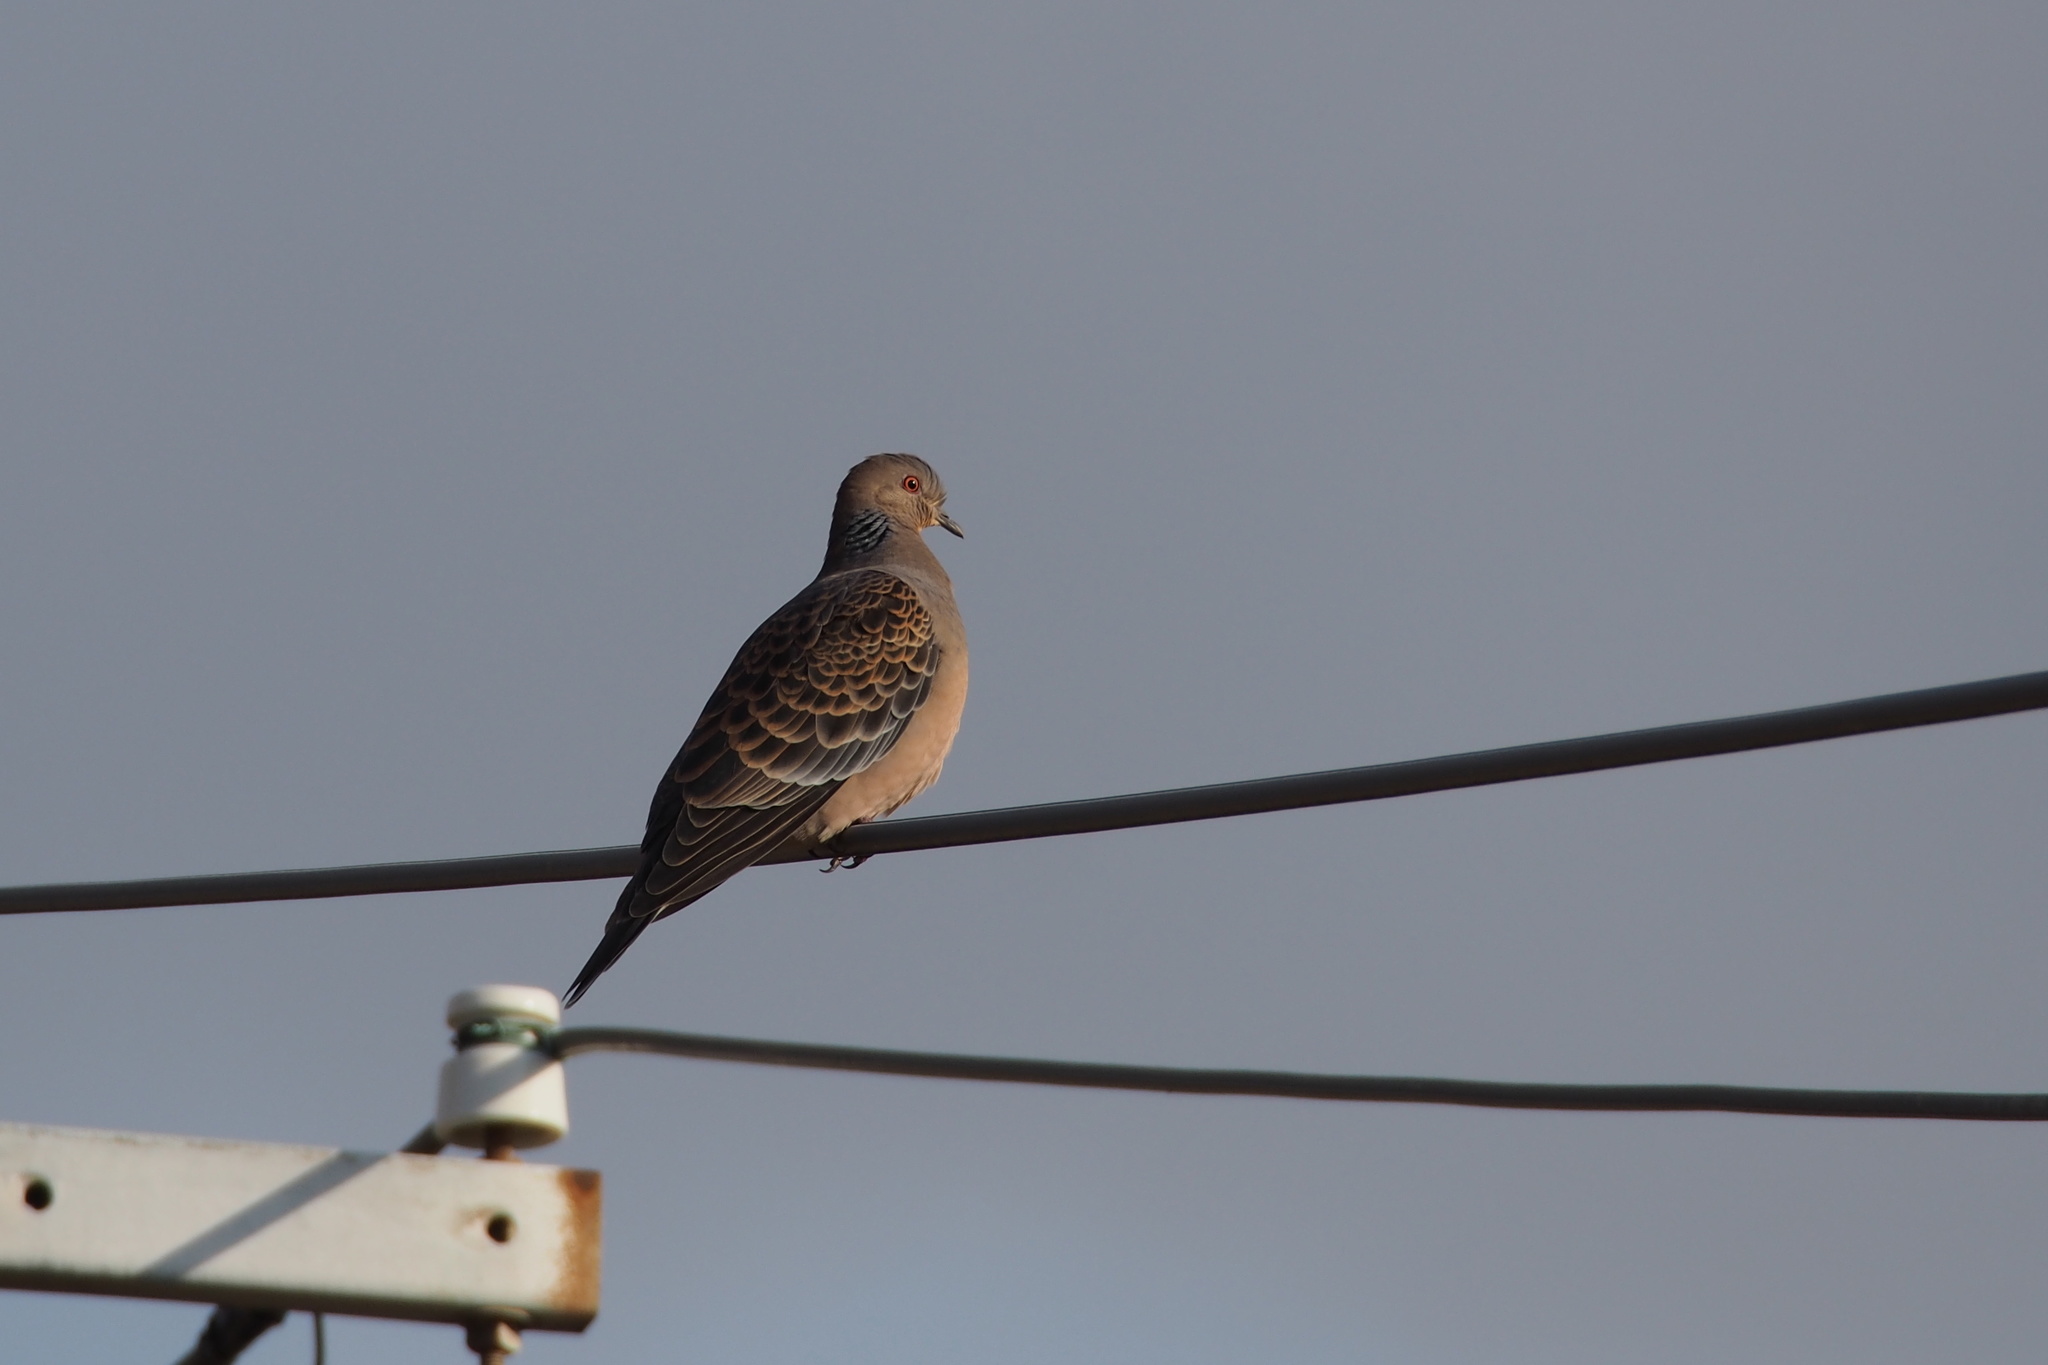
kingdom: Animalia
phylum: Chordata
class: Aves
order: Columbiformes
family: Columbidae
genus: Streptopelia
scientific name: Streptopelia orientalis
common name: Oriental turtle dove
